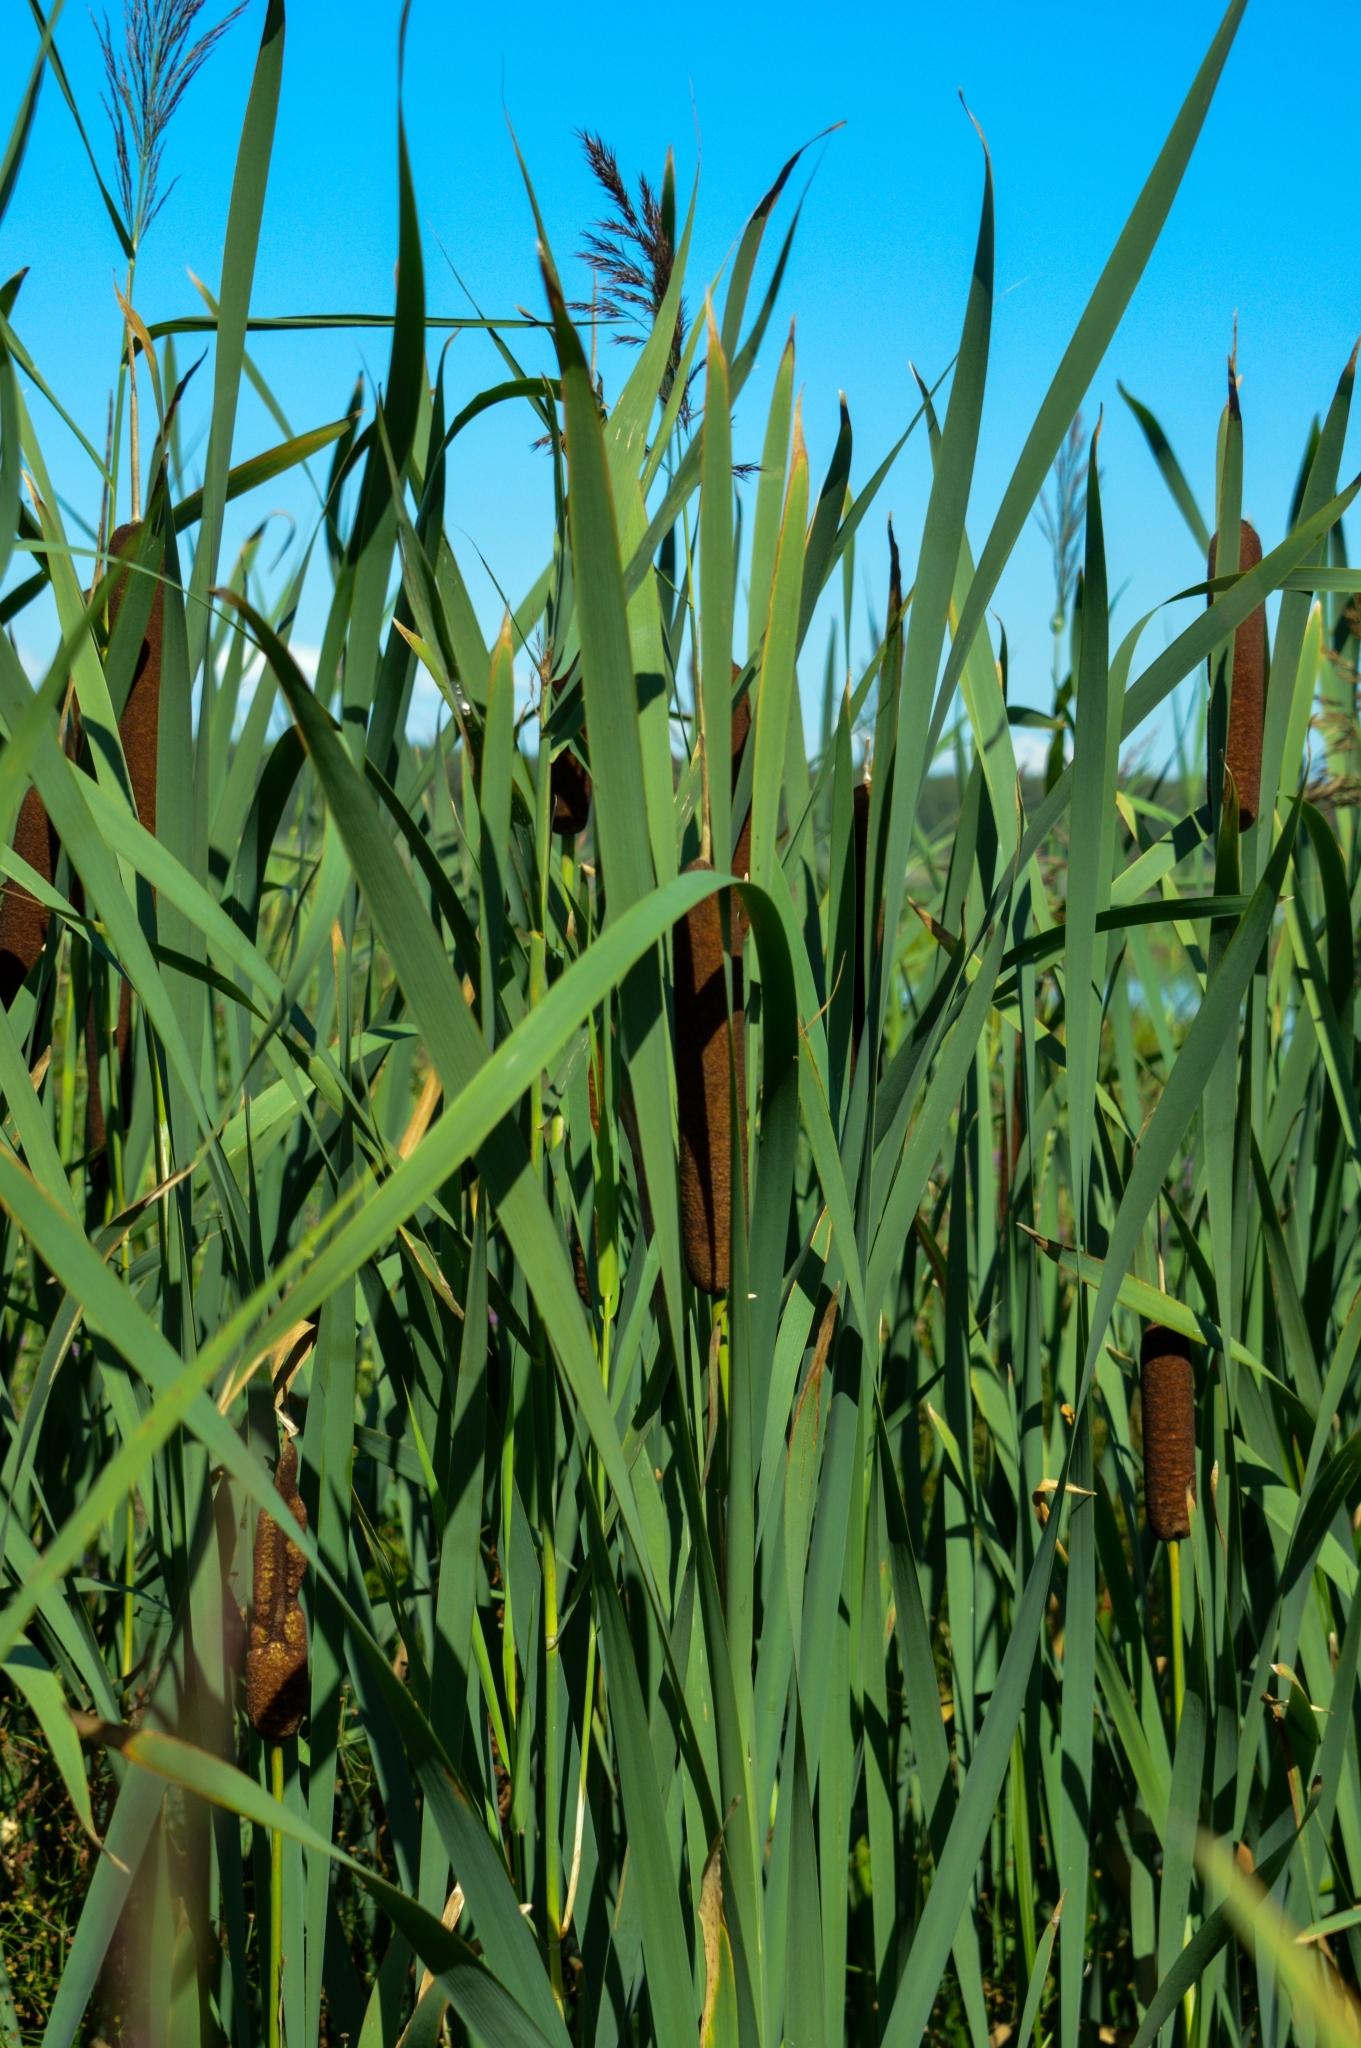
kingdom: Plantae
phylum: Tracheophyta
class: Liliopsida
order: Poales
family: Typhaceae
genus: Typha
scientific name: Typha latifolia
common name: Broadleaf cattail
